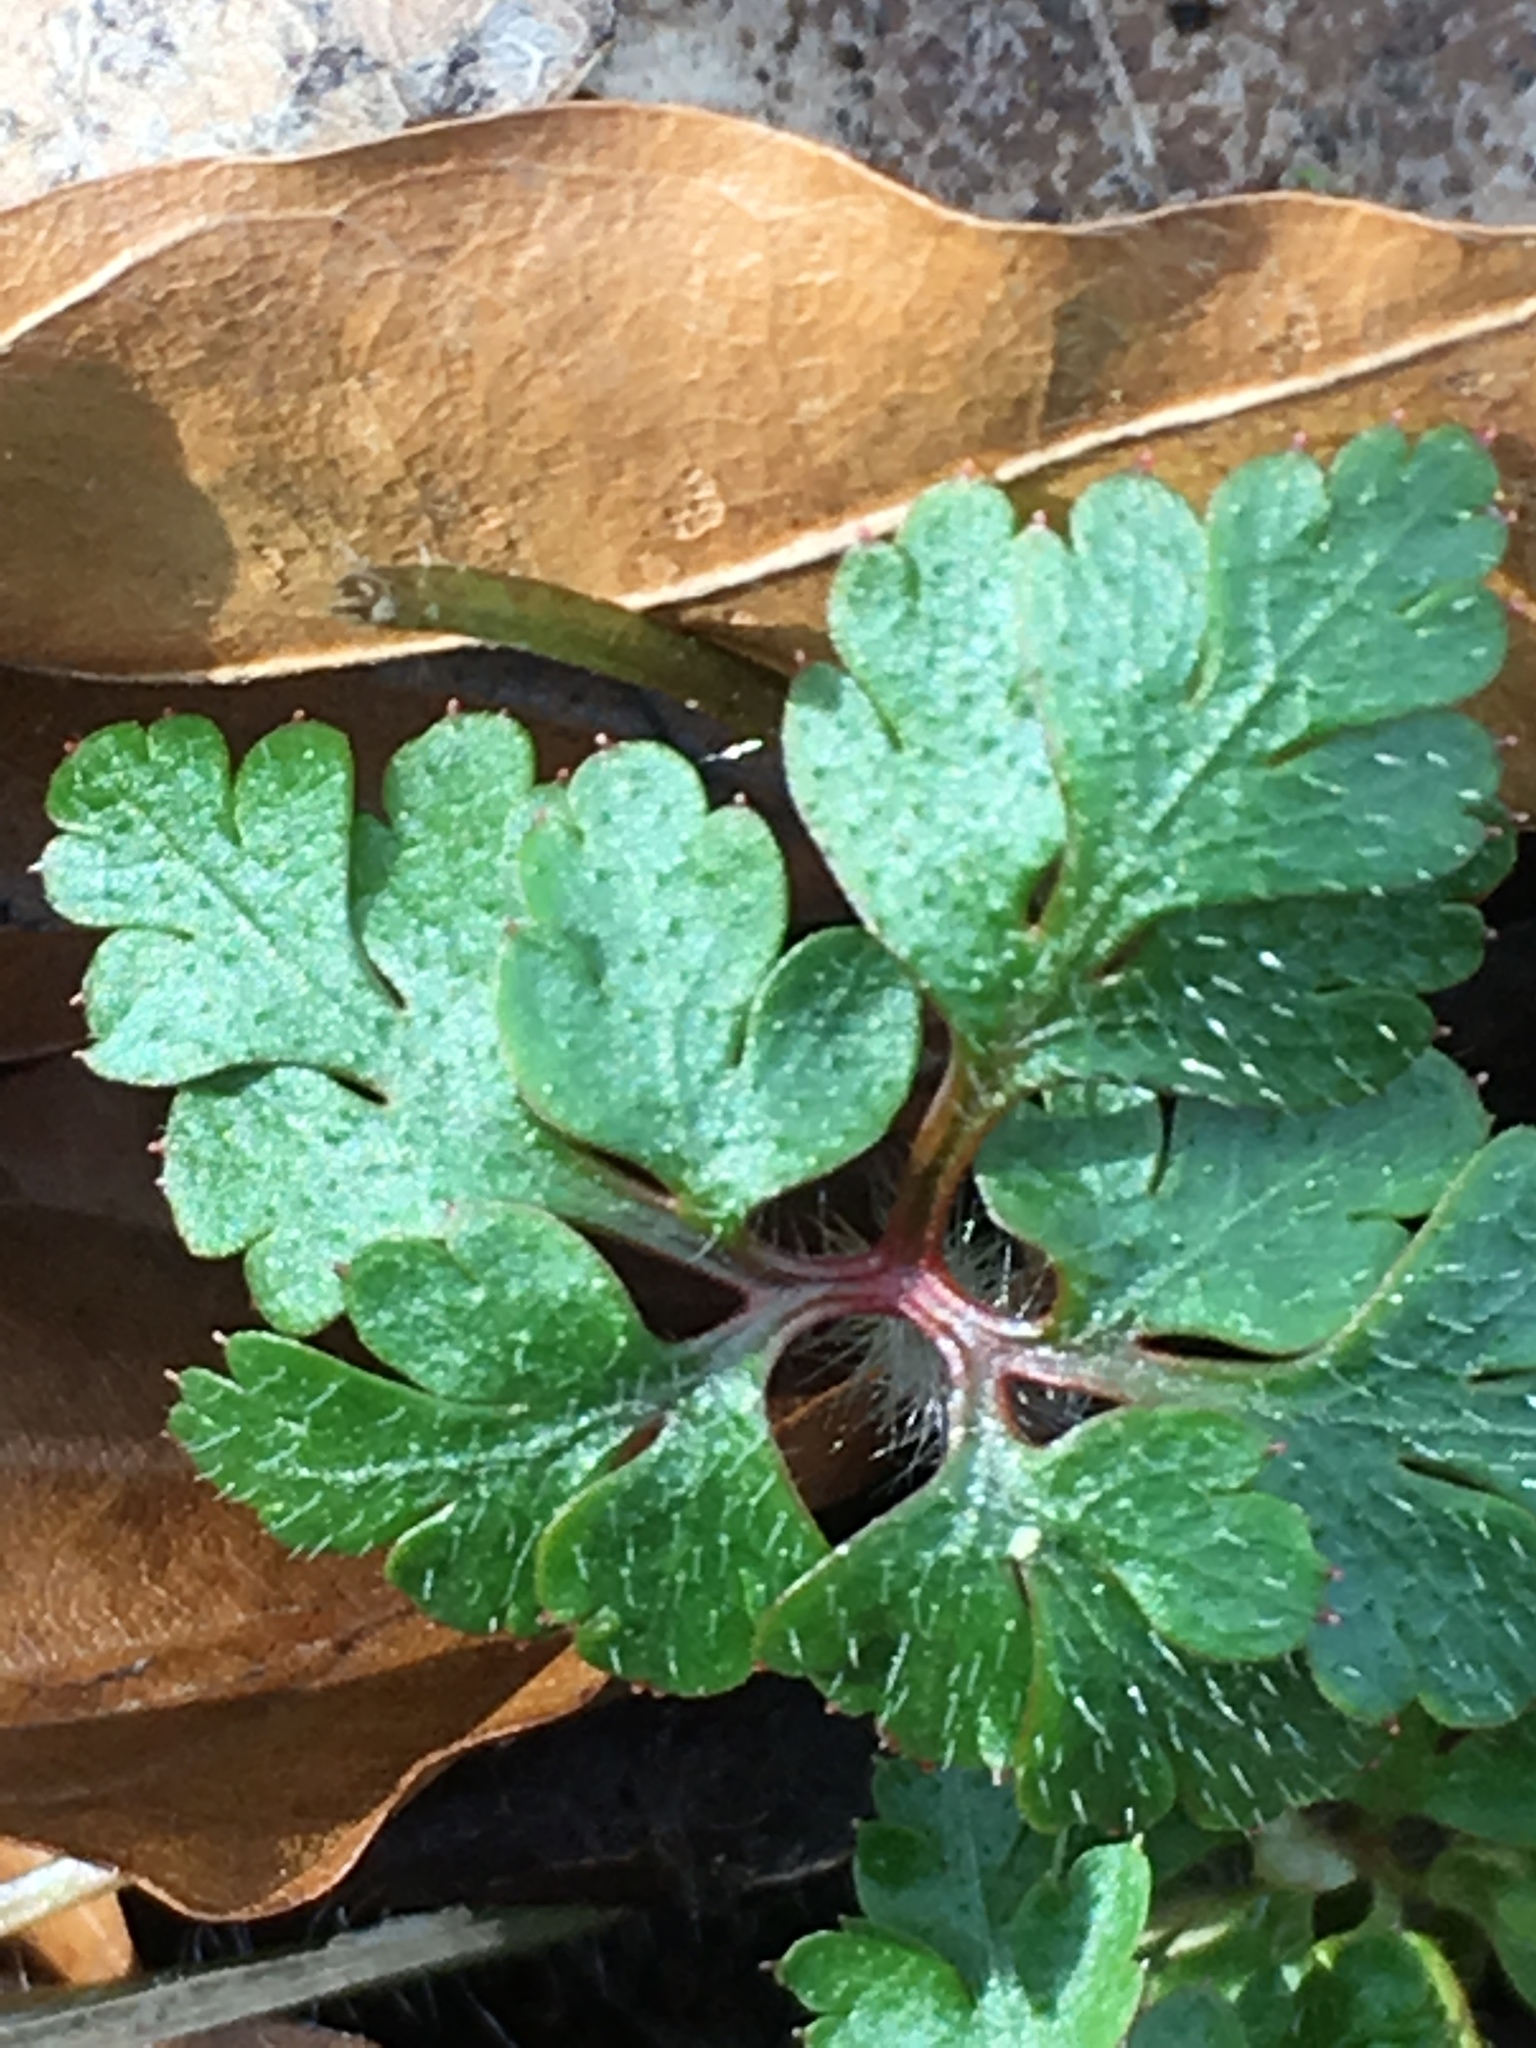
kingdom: Plantae
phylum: Tracheophyta
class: Magnoliopsida
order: Geraniales
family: Geraniaceae
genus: Geranium
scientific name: Geranium robertianum
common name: Herb-robert
